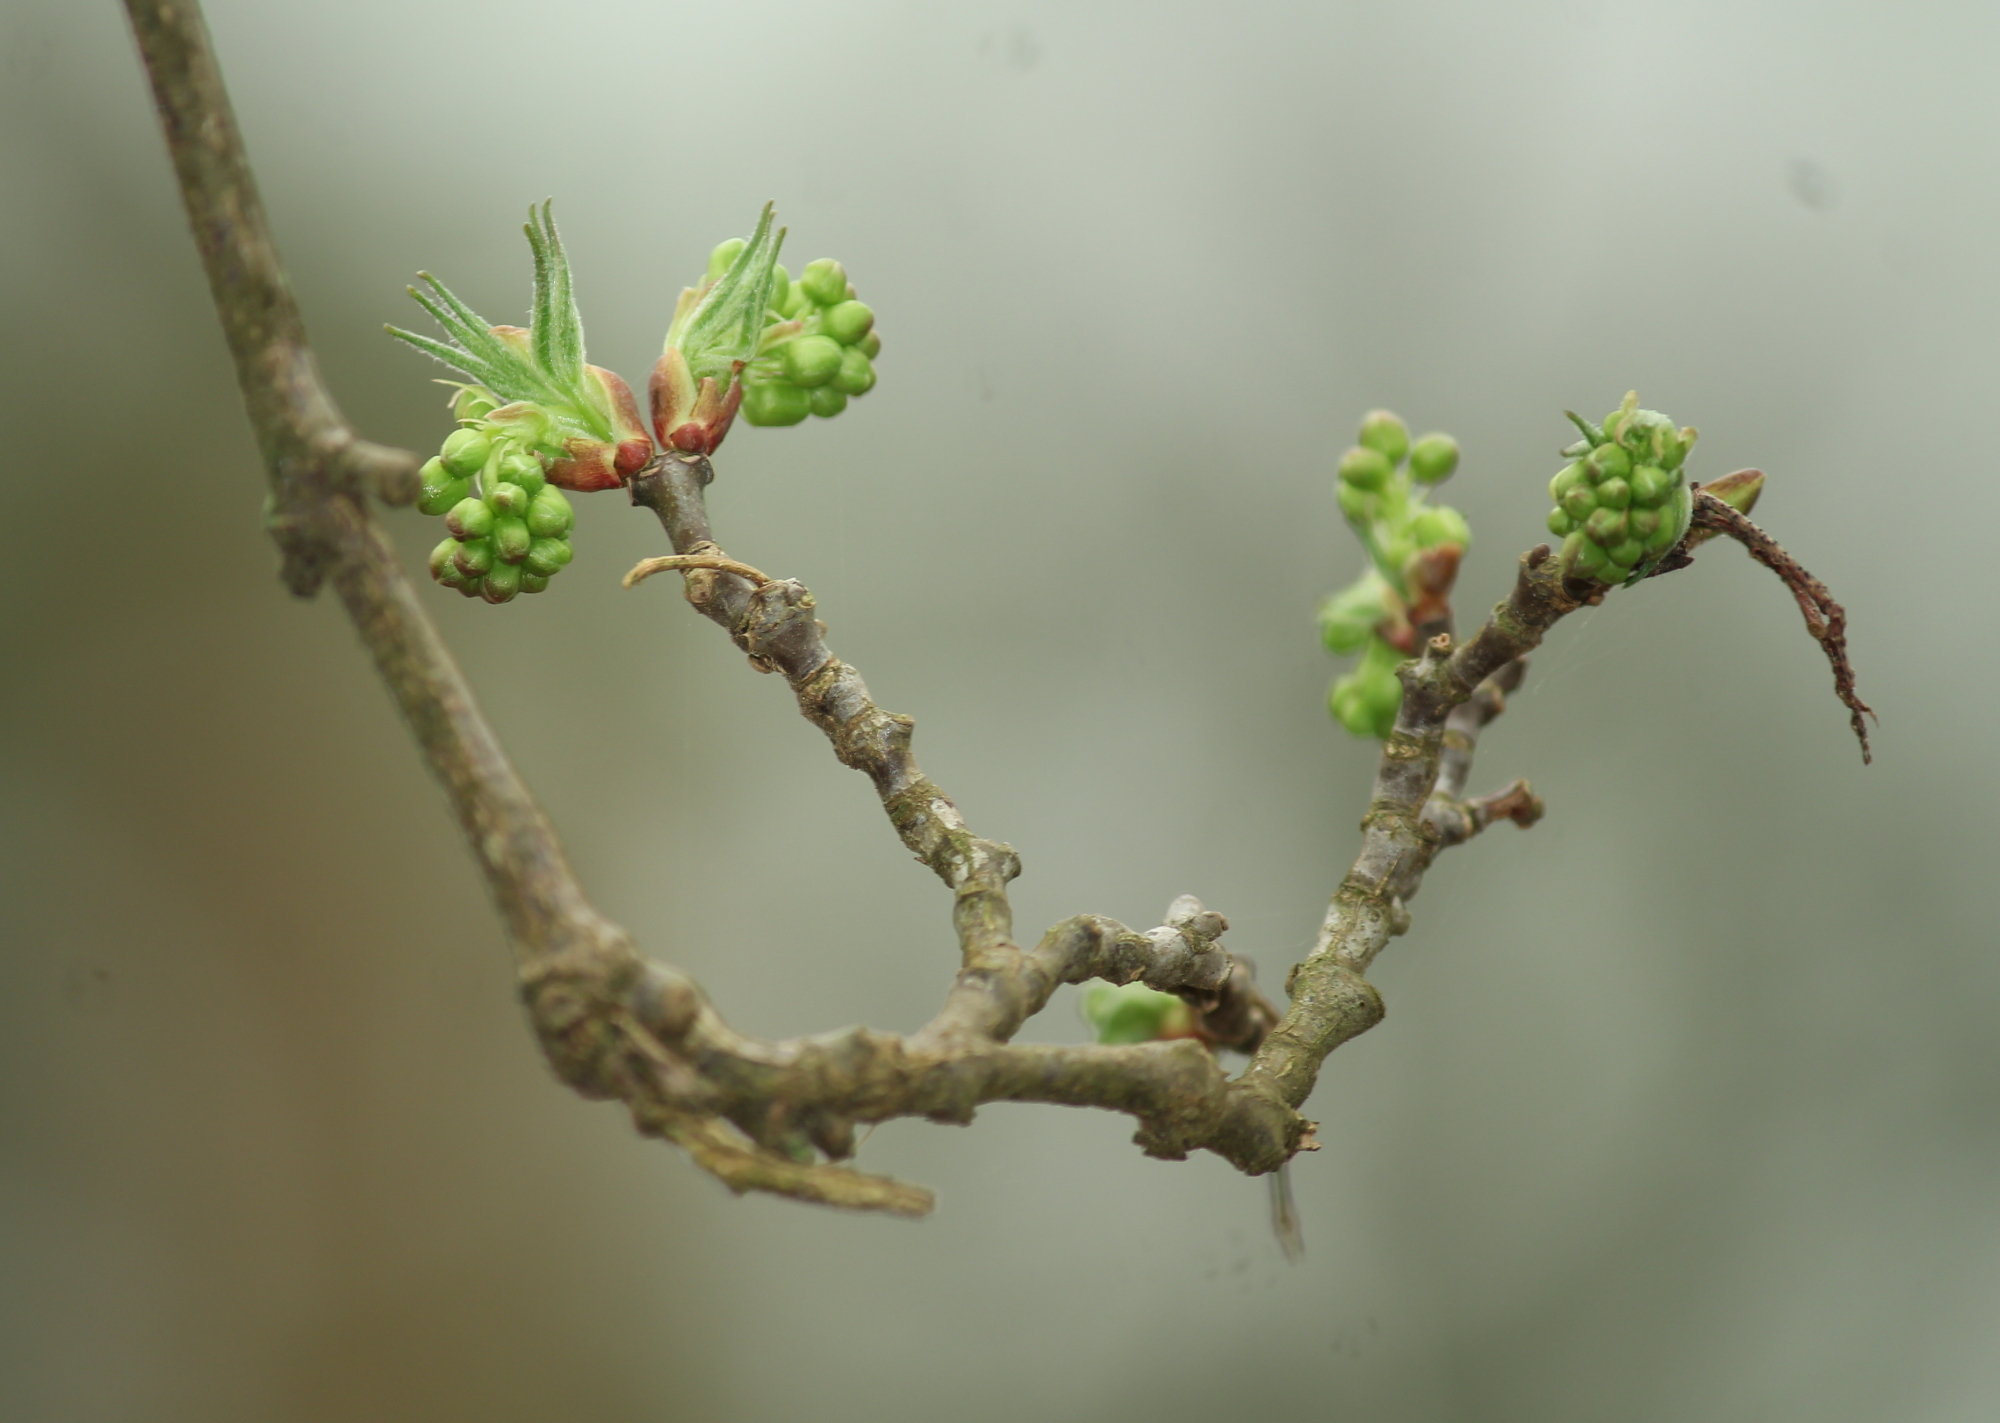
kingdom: Plantae
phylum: Tracheophyta
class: Magnoliopsida
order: Crossosomatales
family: Staphyleaceae
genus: Staphylea
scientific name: Staphylea trifolia
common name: American bladdernut
